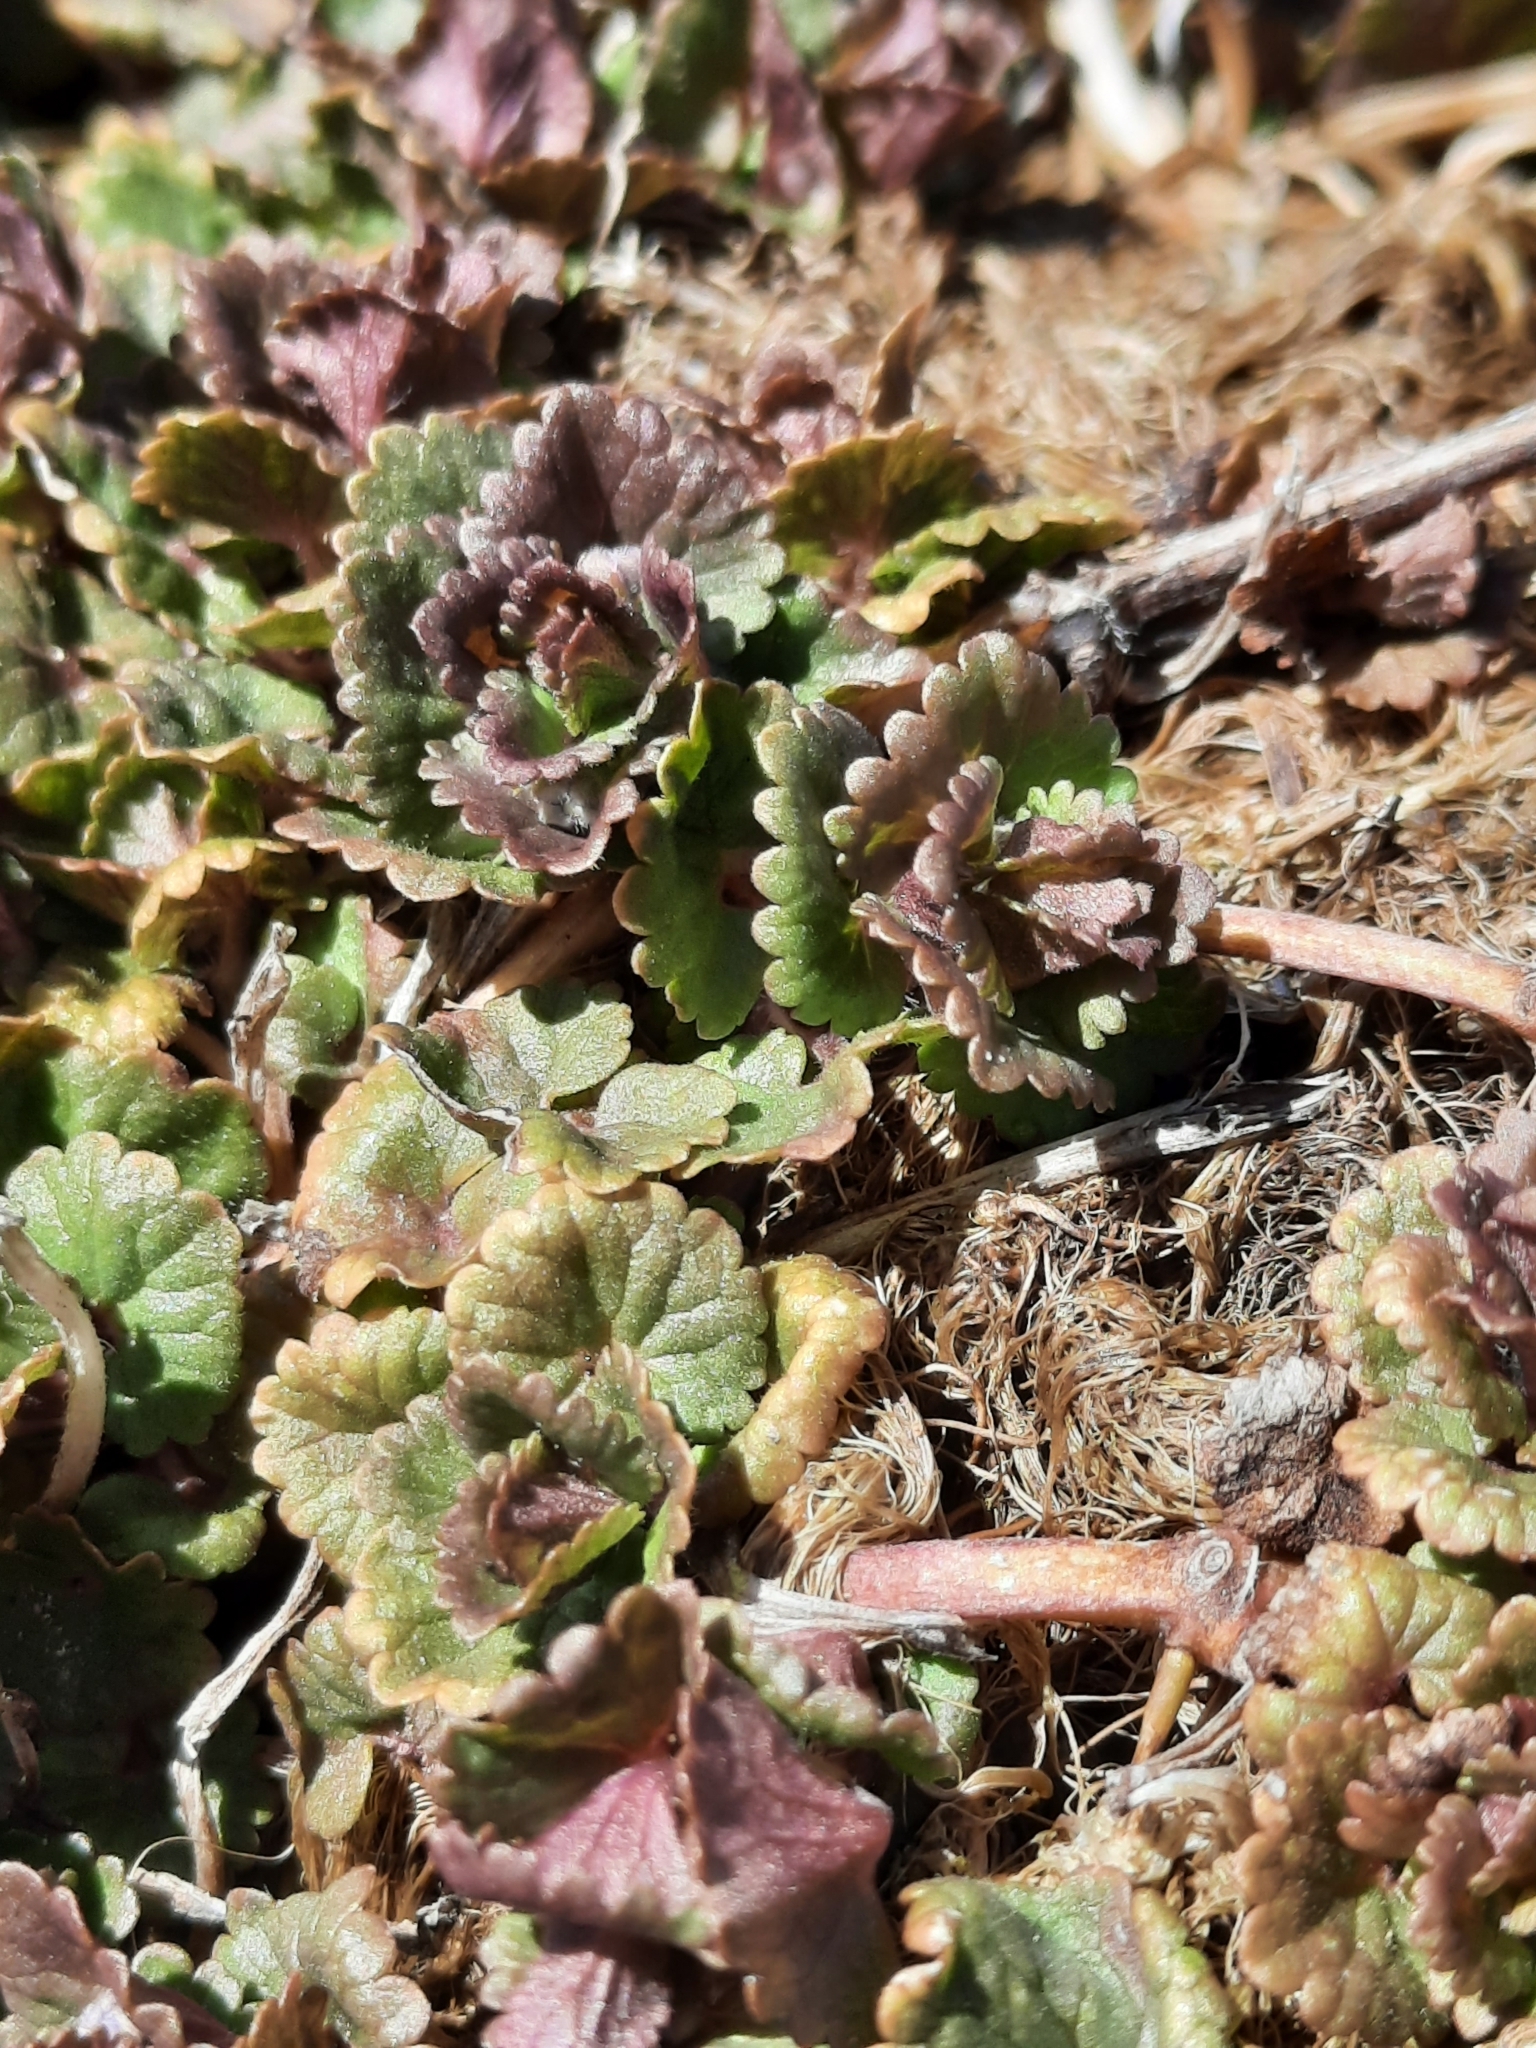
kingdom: Plantae
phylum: Tracheophyta
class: Magnoliopsida
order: Lamiales
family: Lamiaceae
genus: Glechoma
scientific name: Glechoma hederacea
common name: Ground ivy
